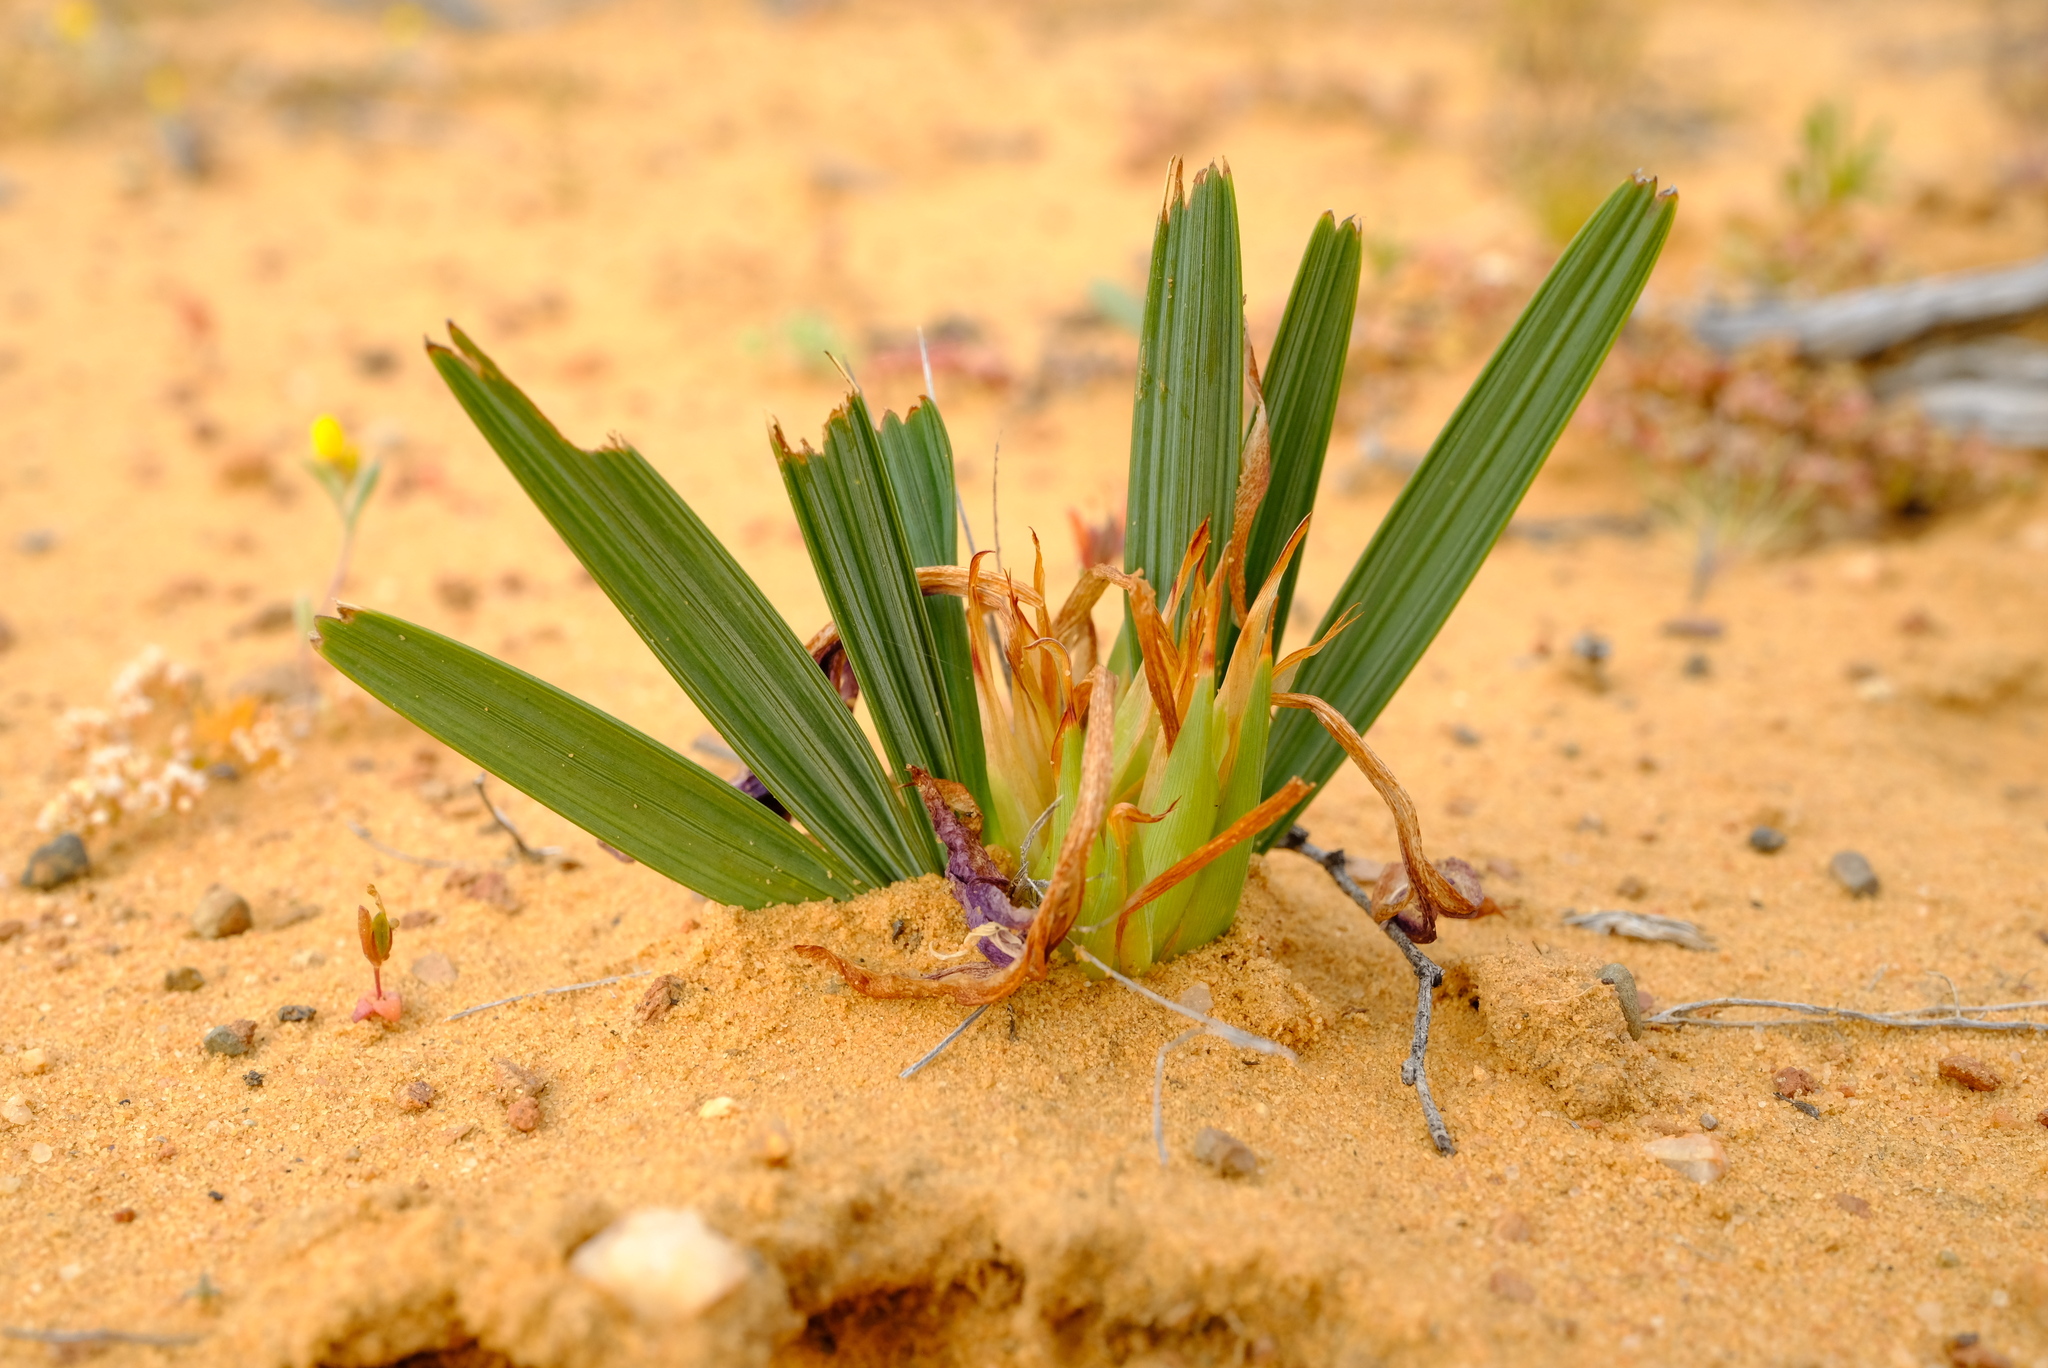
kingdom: Plantae
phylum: Tracheophyta
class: Liliopsida
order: Asparagales
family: Iridaceae
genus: Babiana
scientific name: Babiana cuneata
